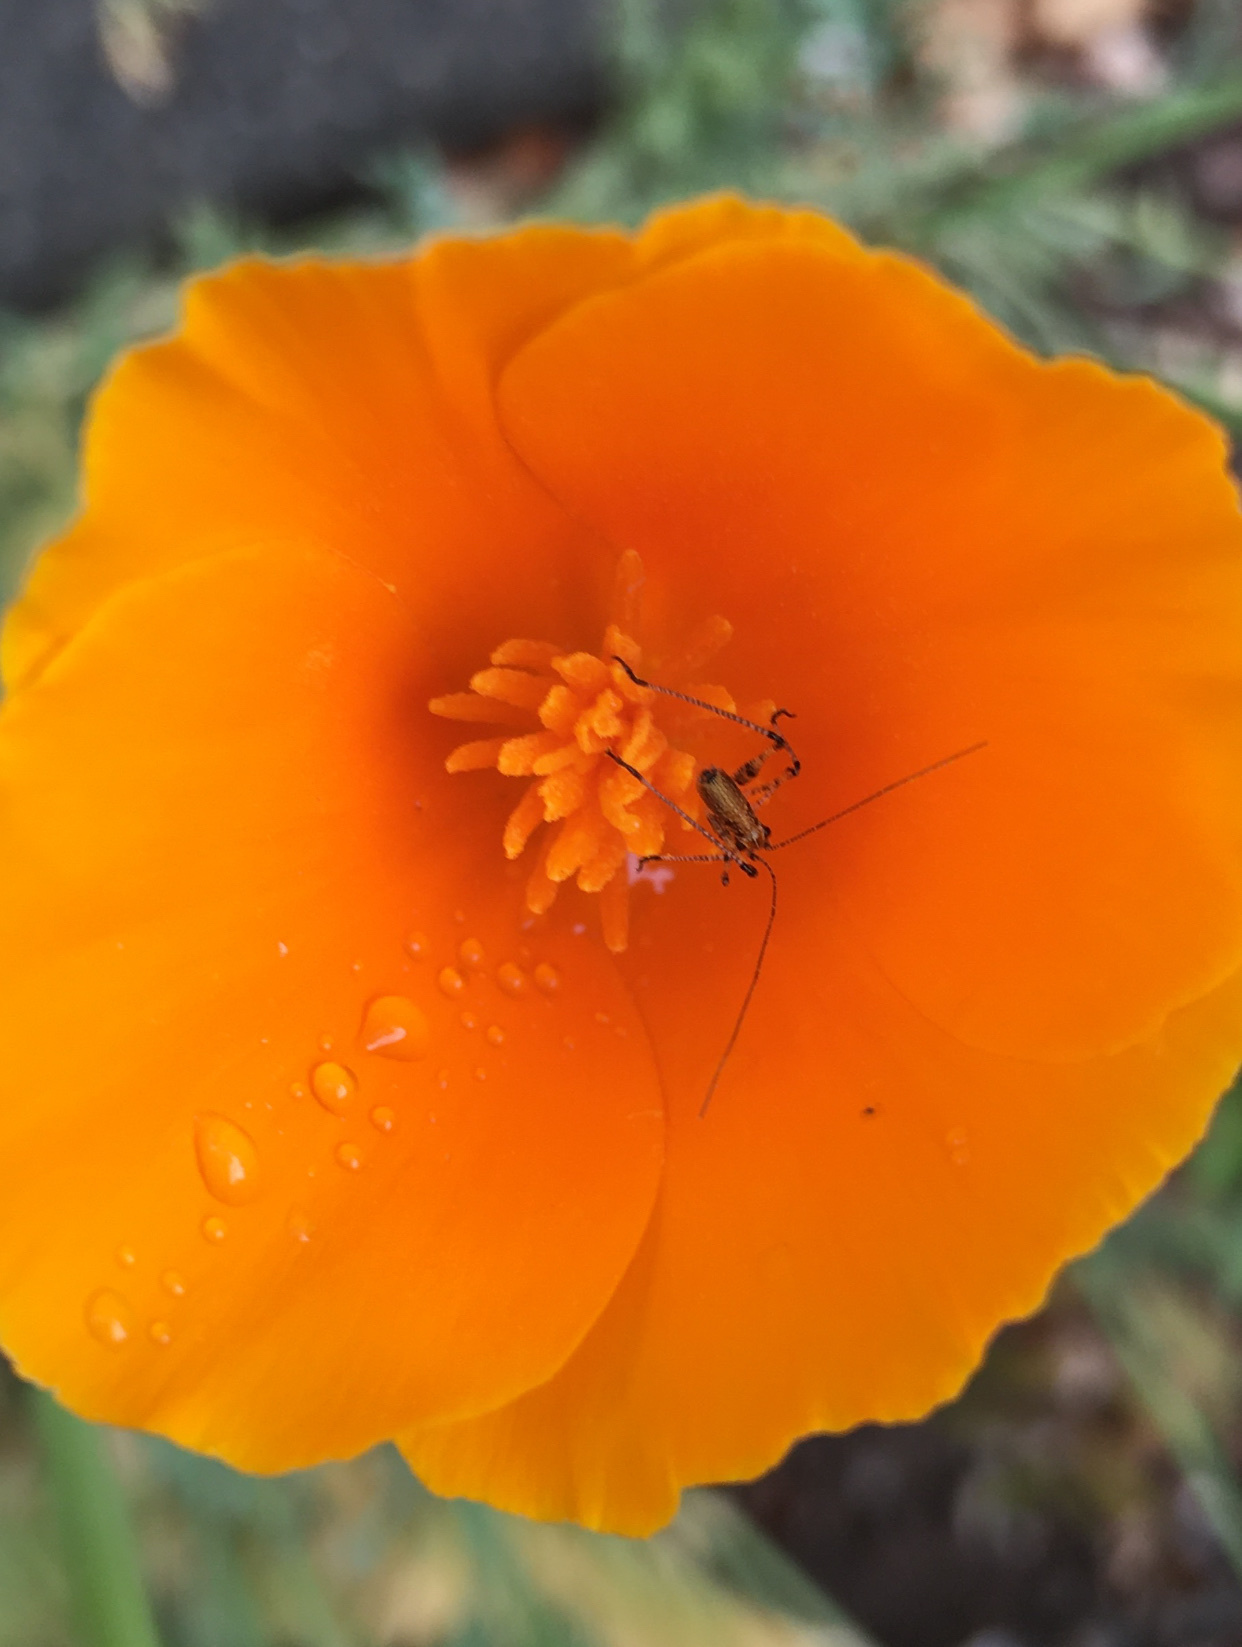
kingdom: Animalia
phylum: Arthropoda
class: Insecta
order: Orthoptera
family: Tettigoniidae
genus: Phaneroptera
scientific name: Phaneroptera nana
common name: Southern sickle bush-cricket
